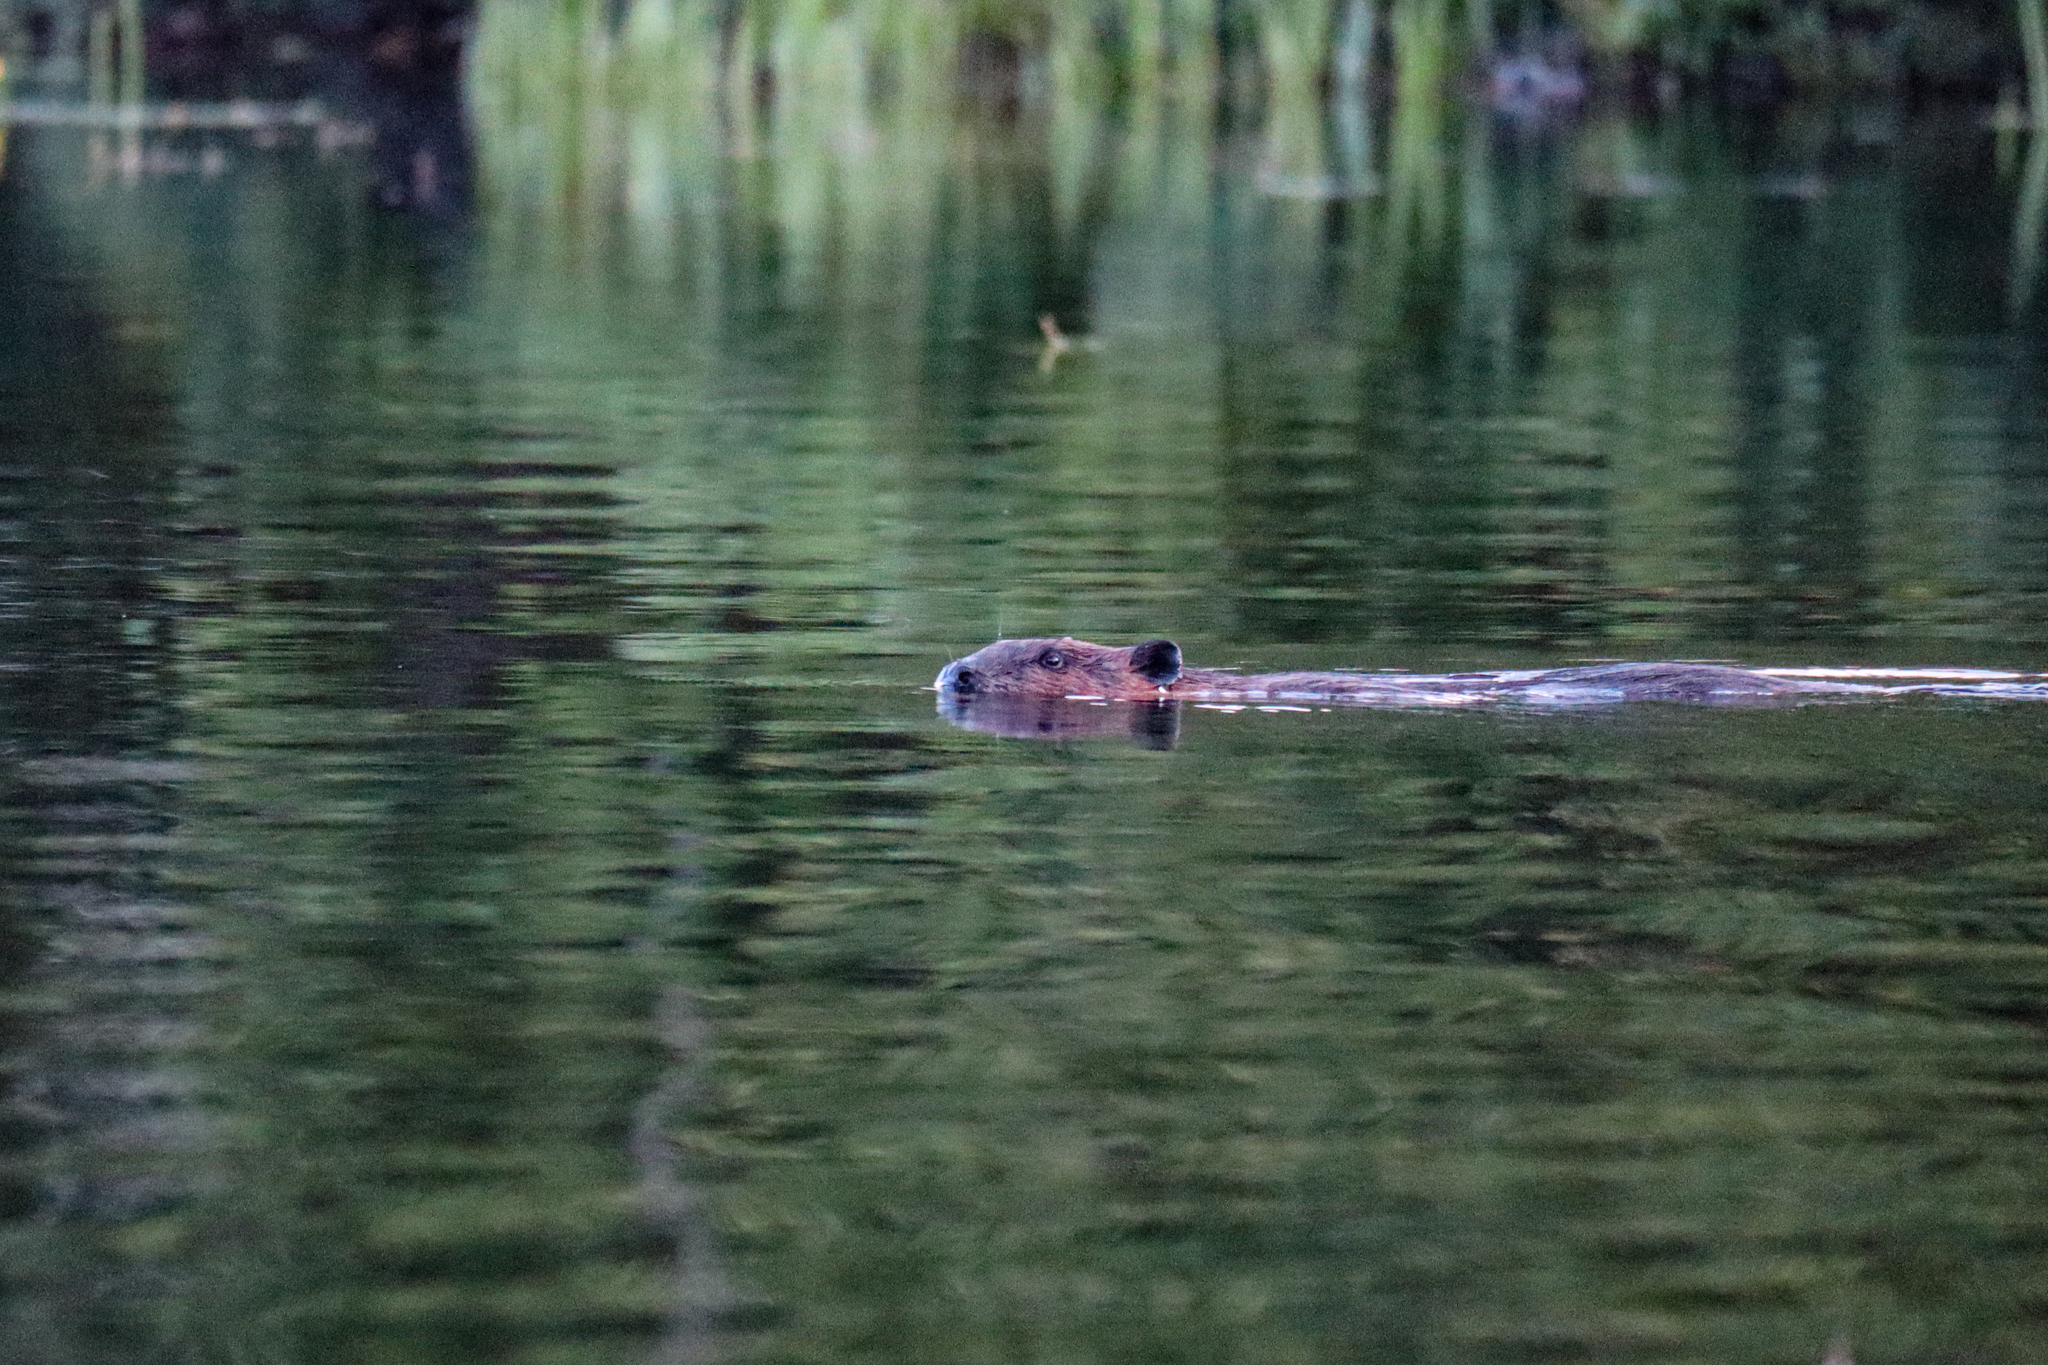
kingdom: Animalia
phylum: Chordata
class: Mammalia
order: Rodentia
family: Castoridae
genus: Castor
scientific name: Castor canadensis
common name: American beaver
